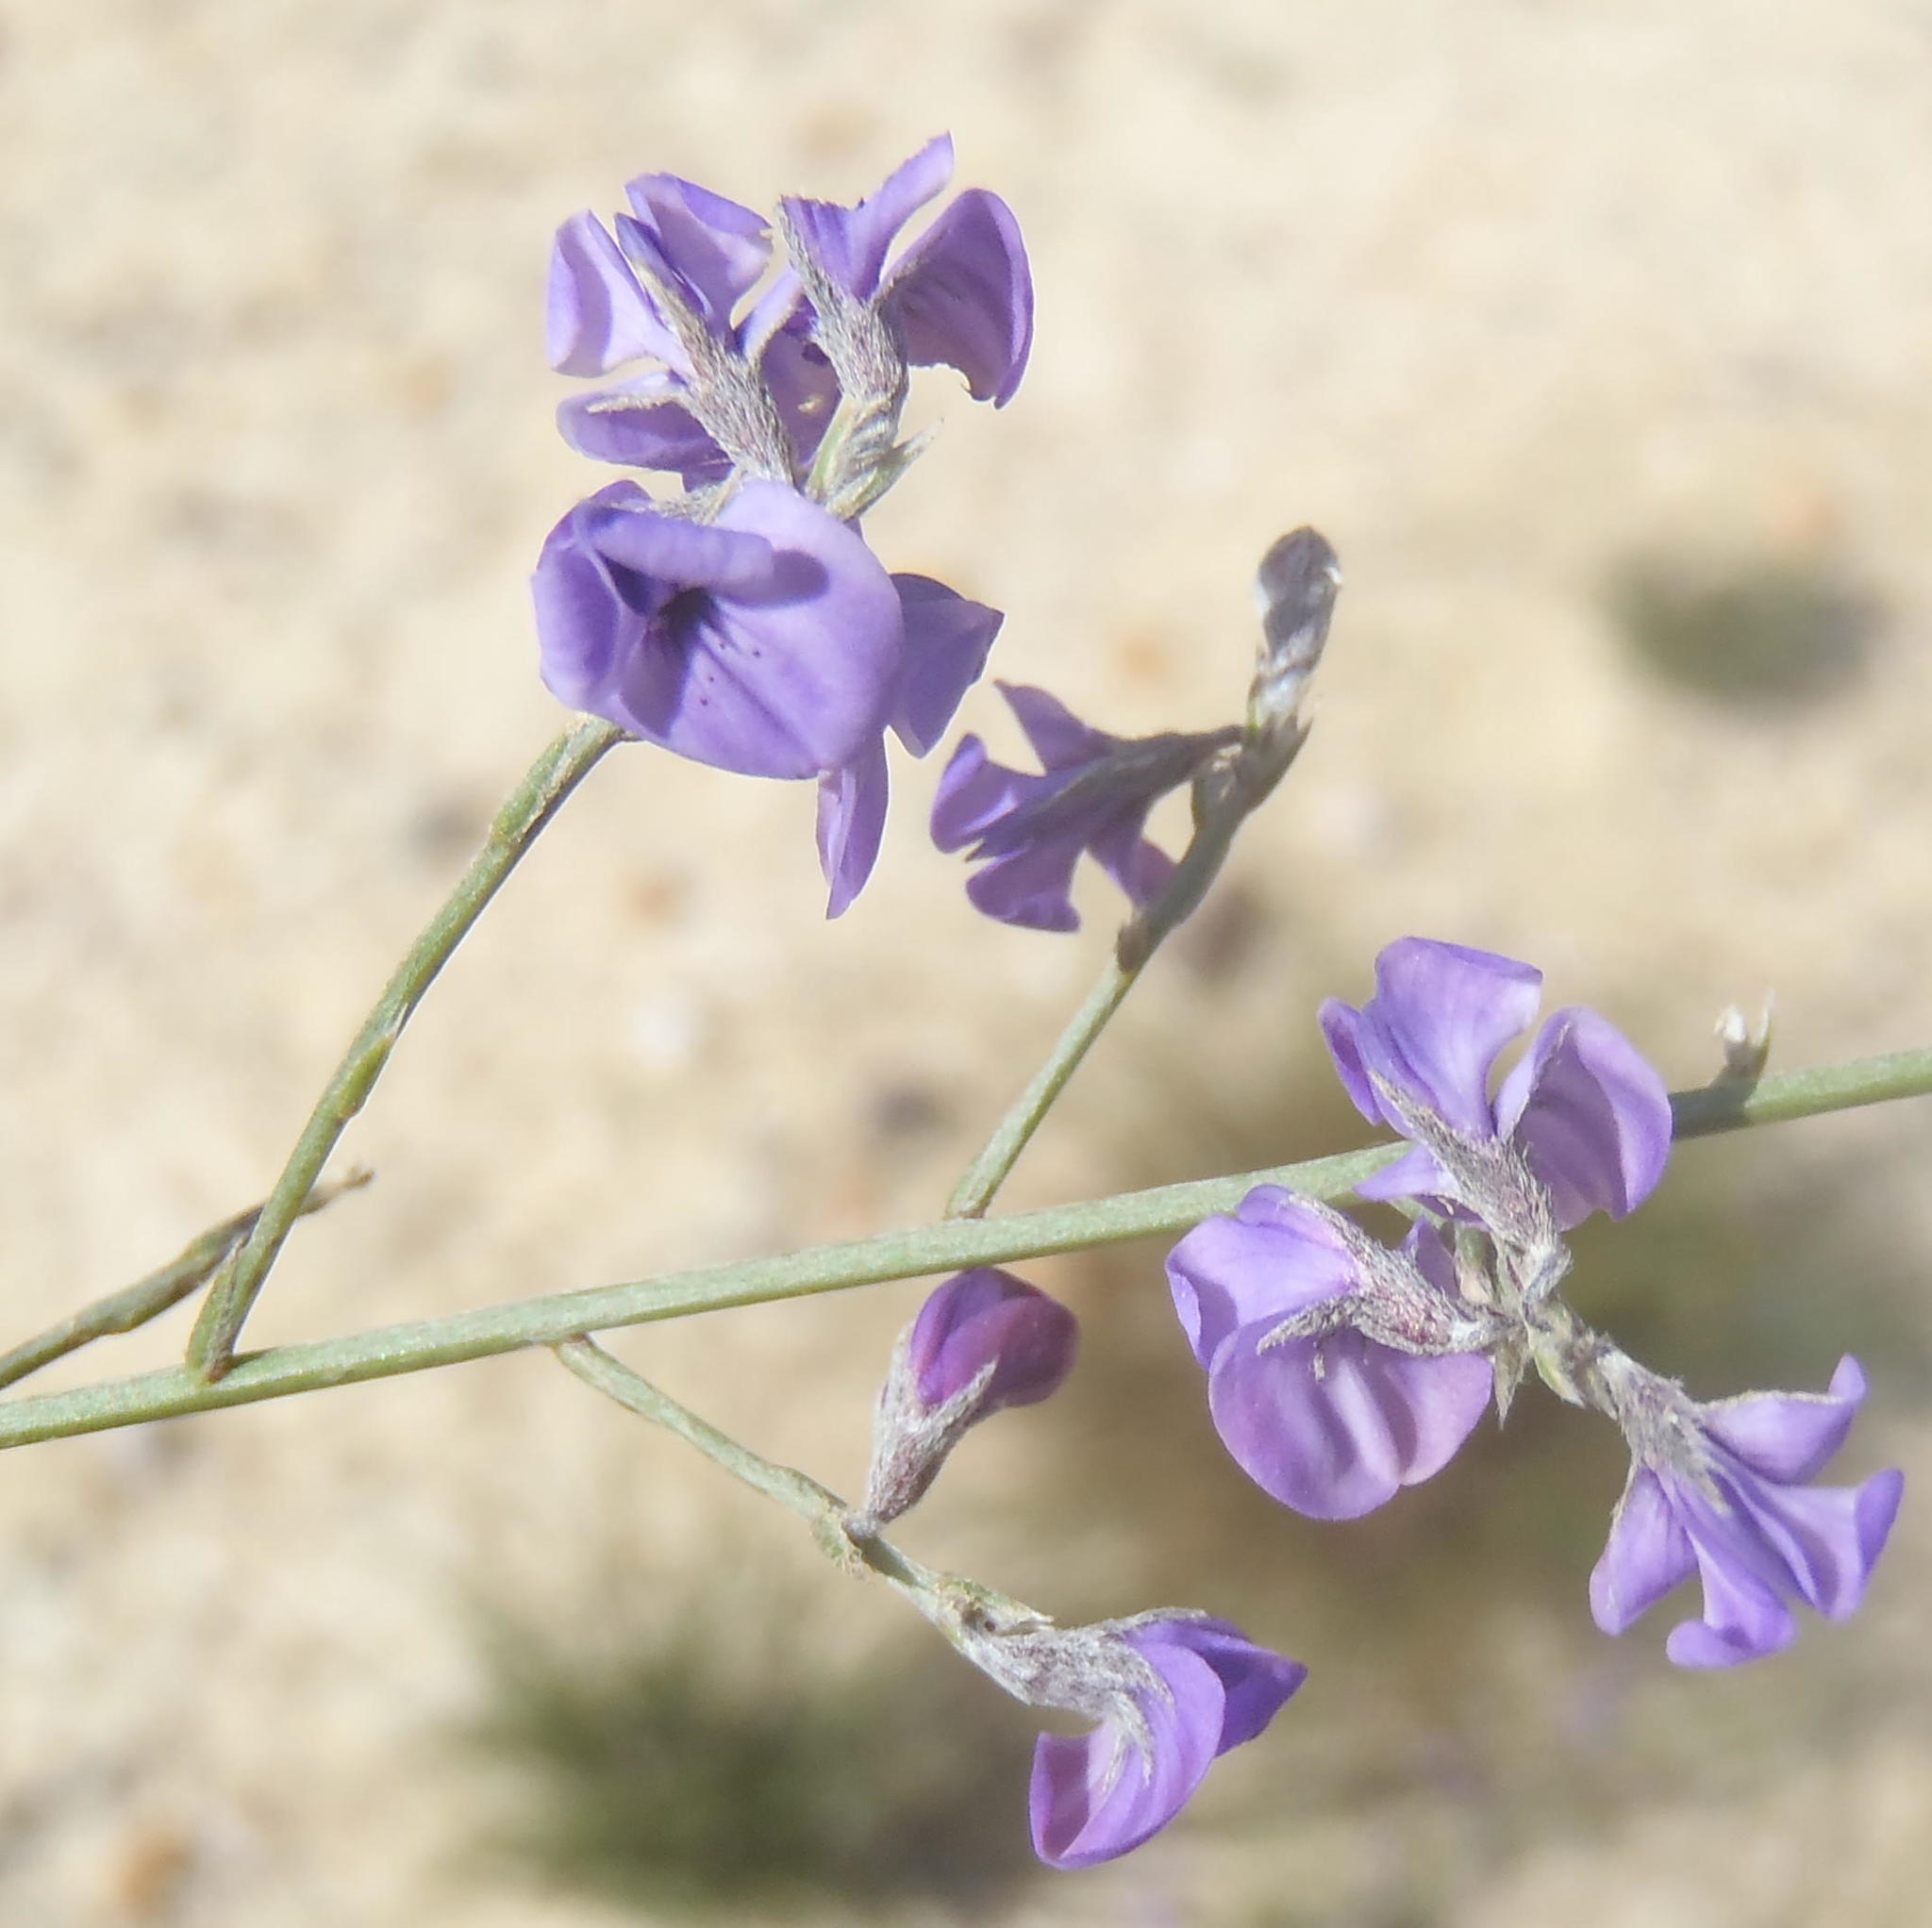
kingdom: Plantae
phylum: Tracheophyta
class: Magnoliopsida
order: Fabales
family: Fabaceae
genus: Amphithalea
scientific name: Amphithalea biovulata
